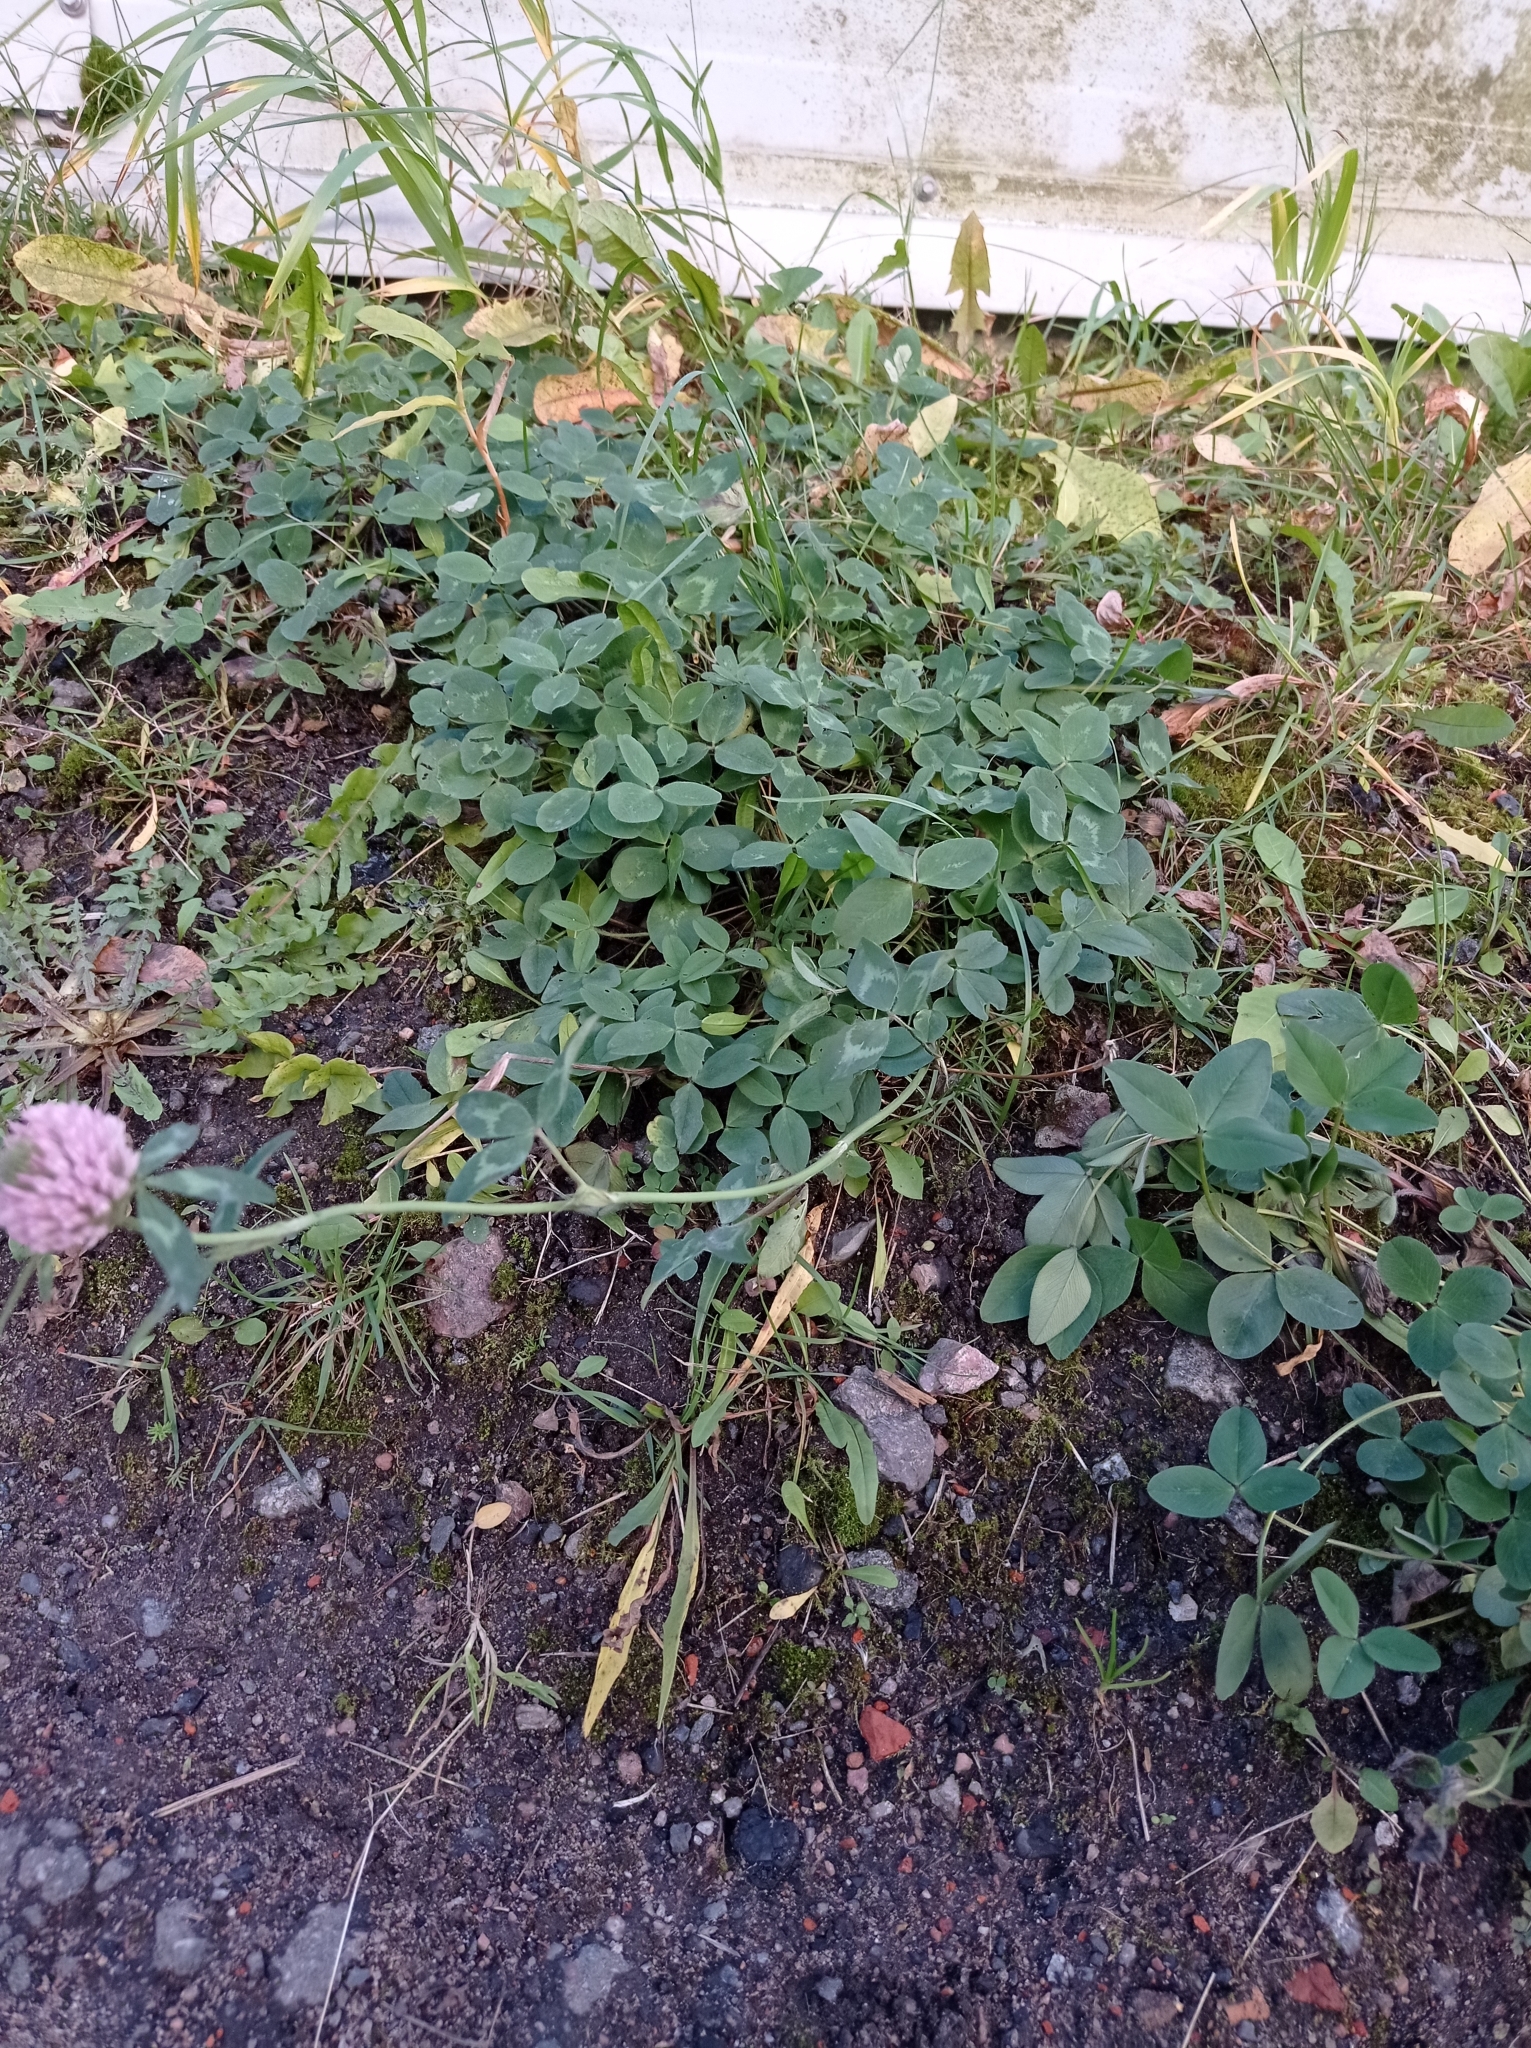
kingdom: Plantae
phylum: Tracheophyta
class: Magnoliopsida
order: Fabales
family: Fabaceae
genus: Trifolium
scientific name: Trifolium pratense
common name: Red clover
